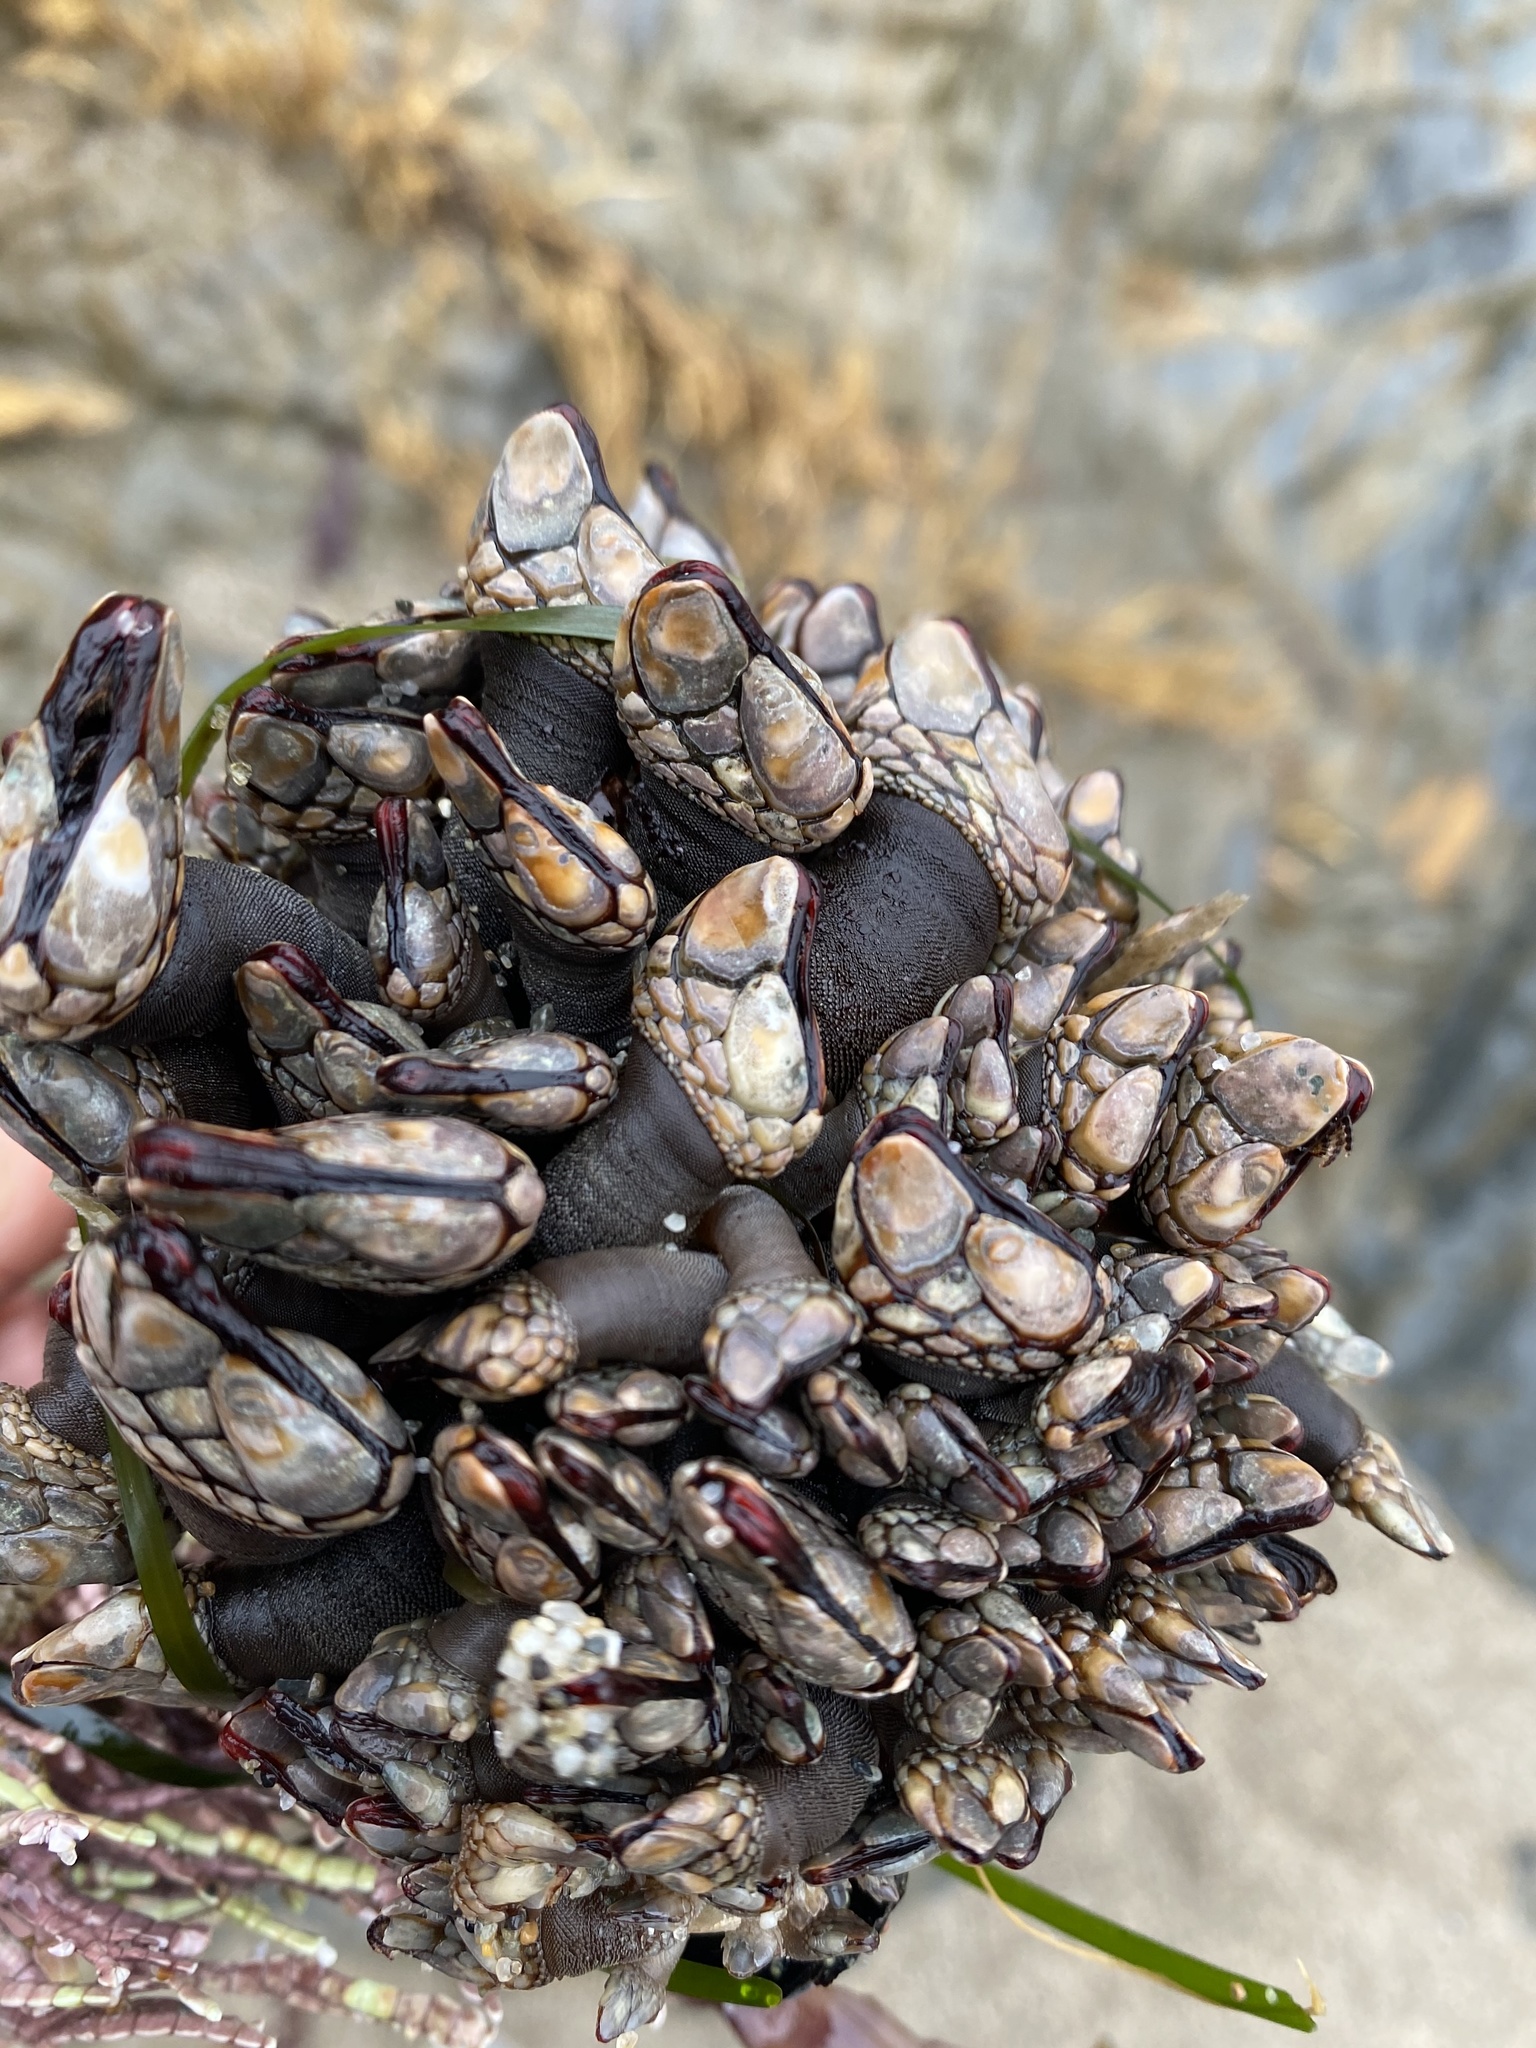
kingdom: Animalia
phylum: Arthropoda
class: Maxillopoda
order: Pedunculata
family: Pollicipedidae
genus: Pollicipes
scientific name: Pollicipes polymerus
